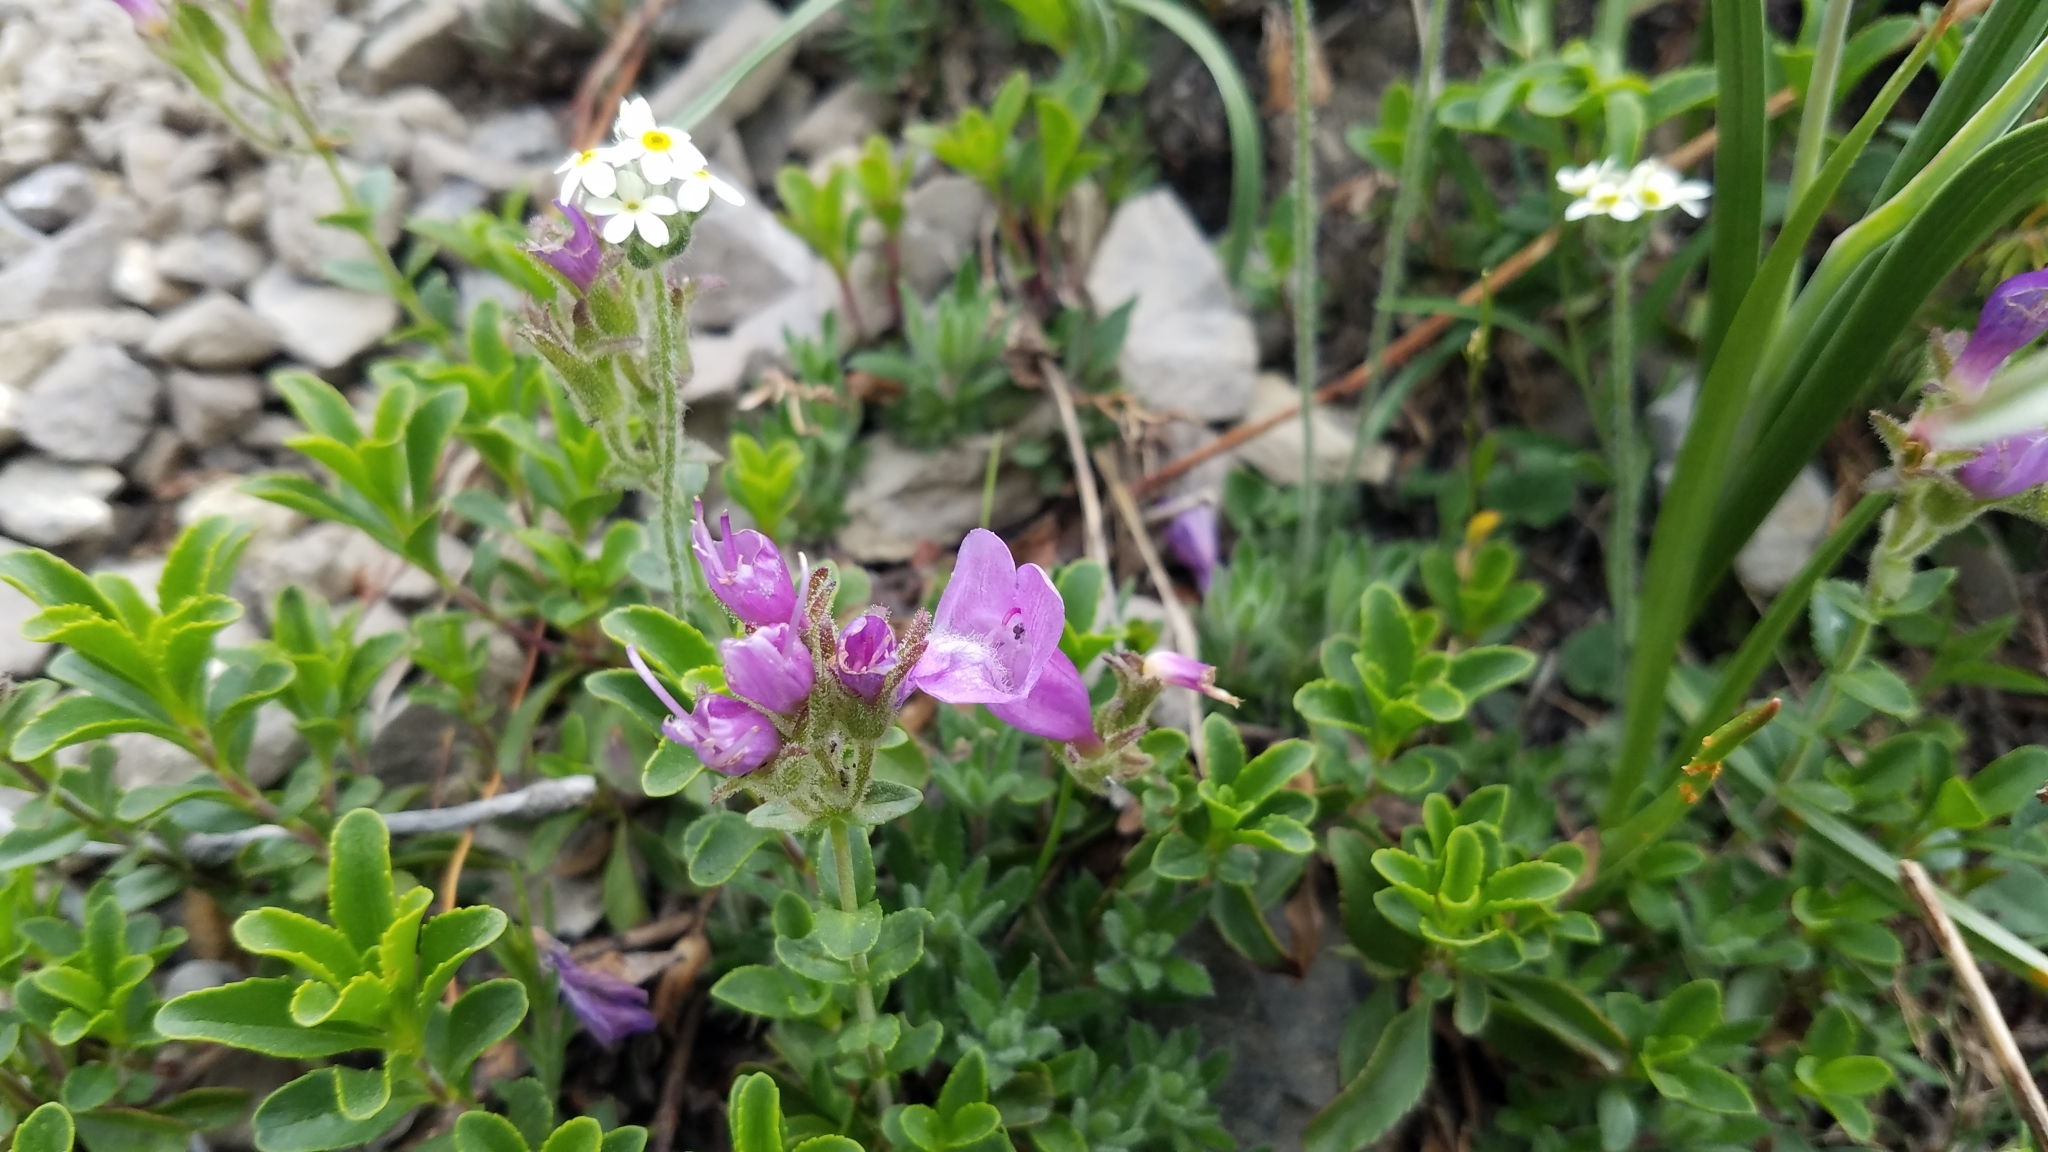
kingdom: Plantae
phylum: Tracheophyta
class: Magnoliopsida
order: Lamiales
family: Plantaginaceae
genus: Penstemon
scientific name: Penstemon ellipticus
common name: Alpine beardtongue
